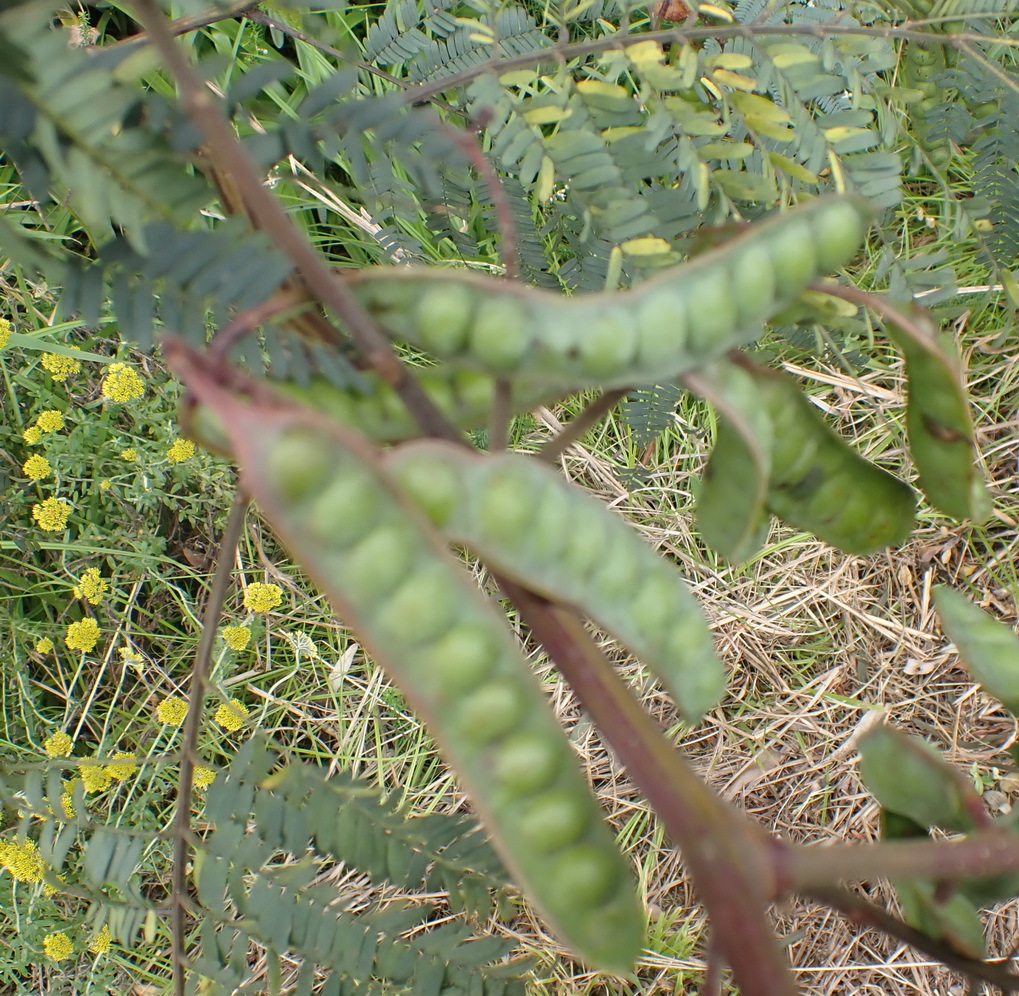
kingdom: Plantae
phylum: Tracheophyta
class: Magnoliopsida
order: Fabales
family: Fabaceae
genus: Prosopis
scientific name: Prosopis glandulosa
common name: Honey mesquite
